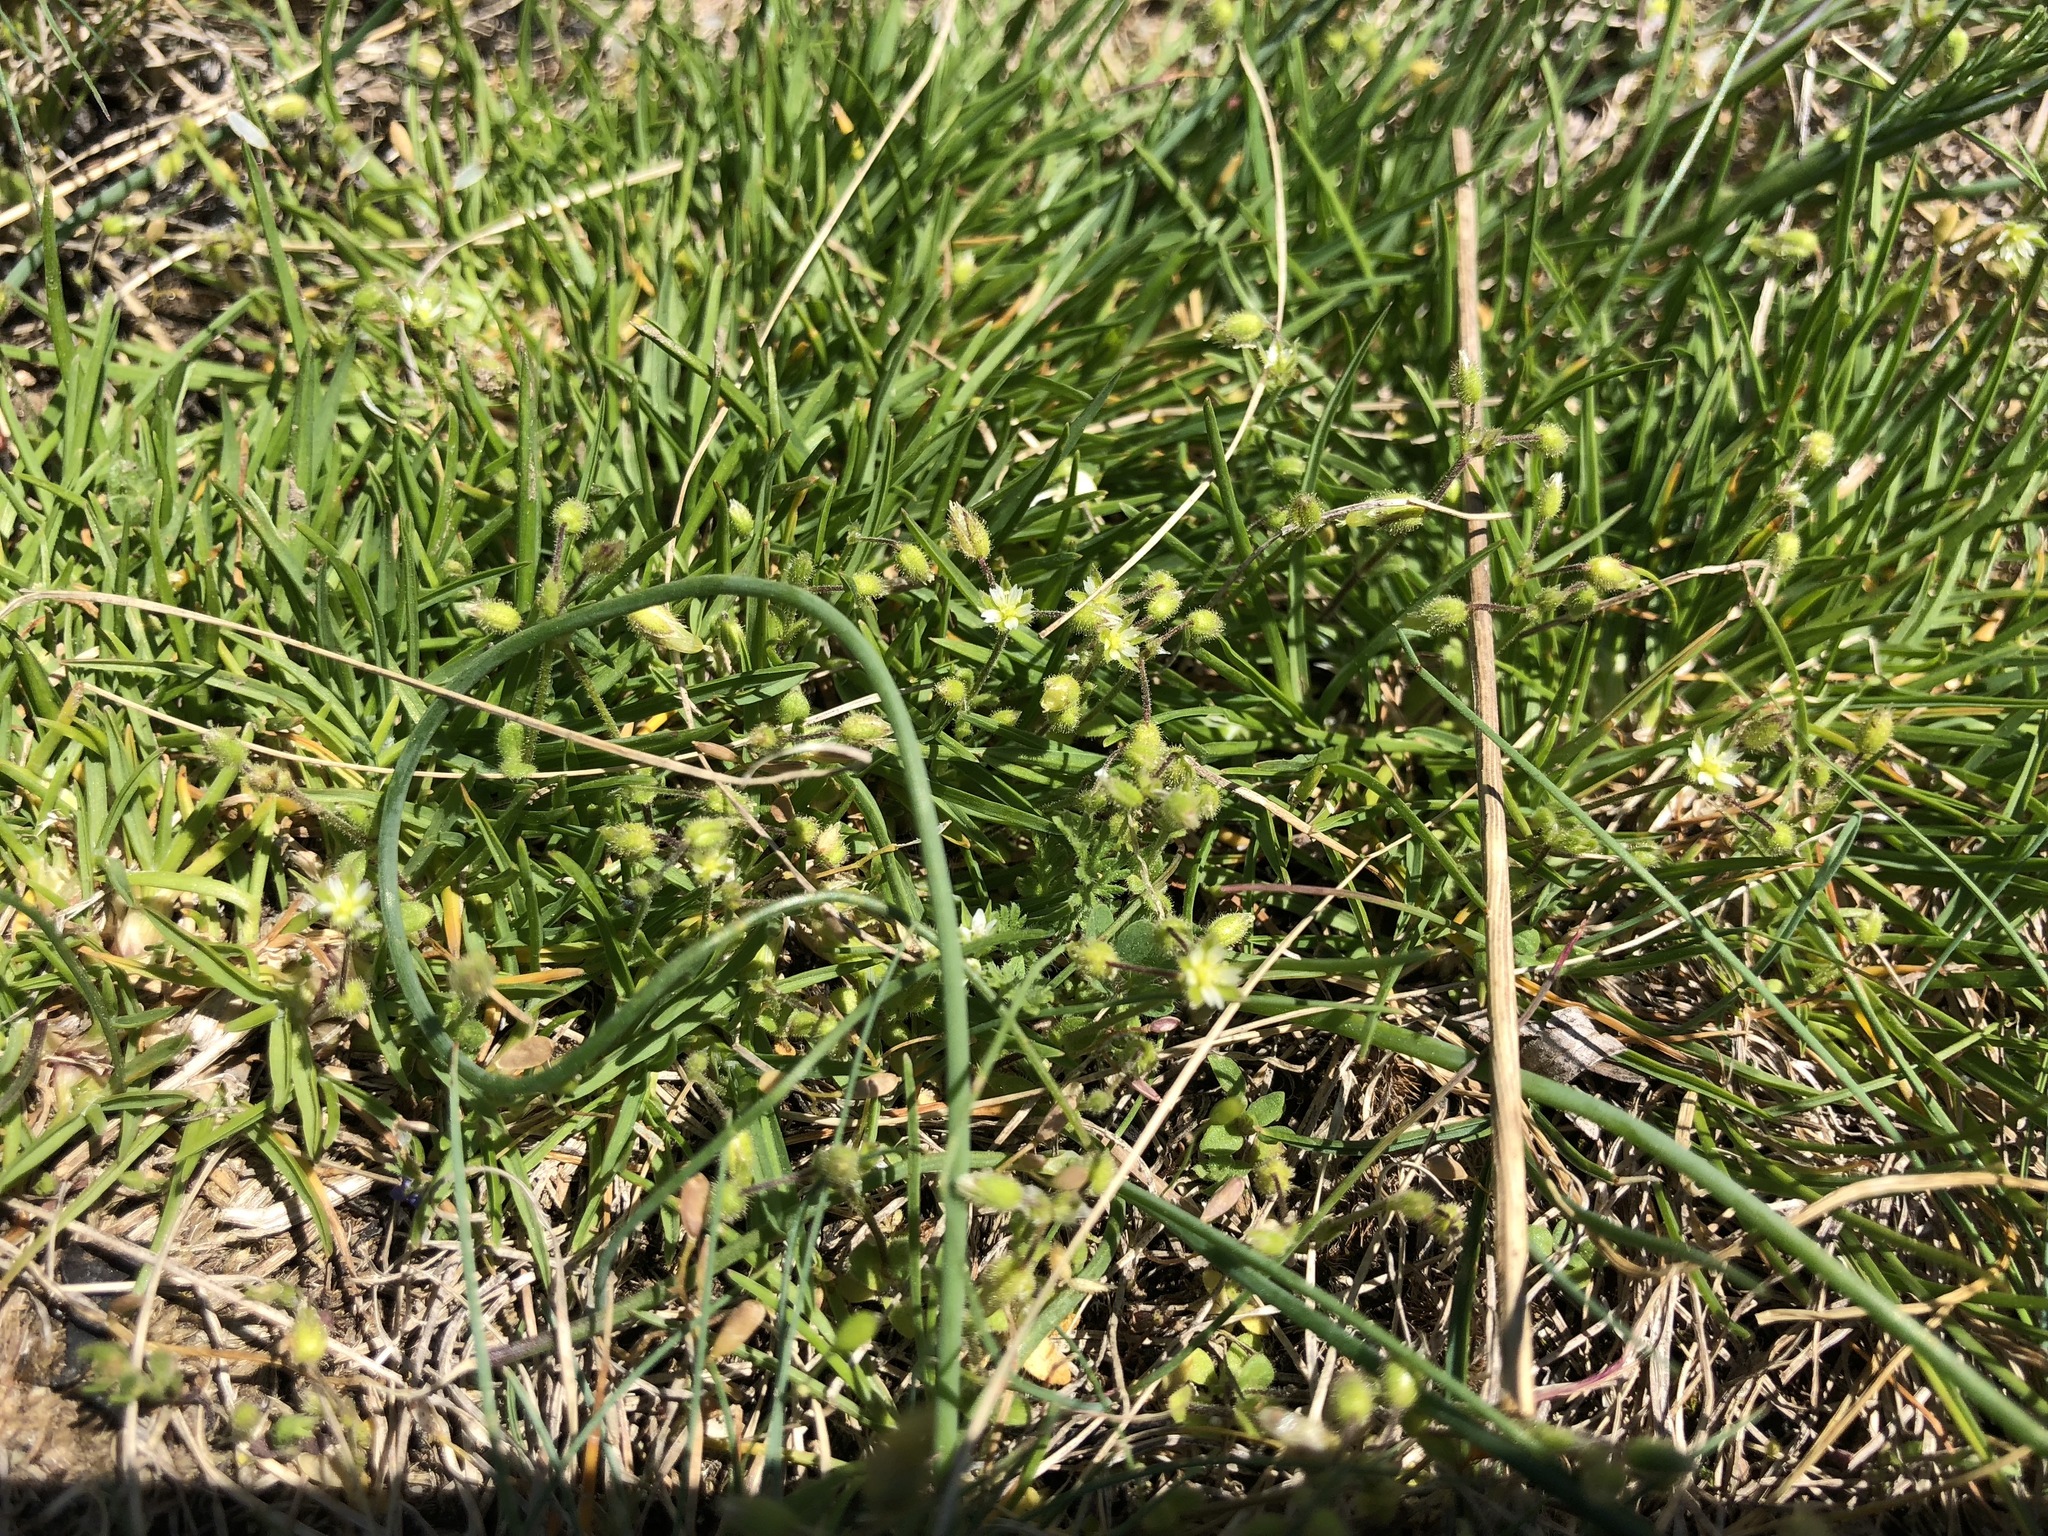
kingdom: Plantae
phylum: Tracheophyta
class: Magnoliopsida
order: Caryophyllales
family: Caryophyllaceae
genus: Cerastium
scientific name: Cerastium semidecandrum
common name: Little mouse-ear
